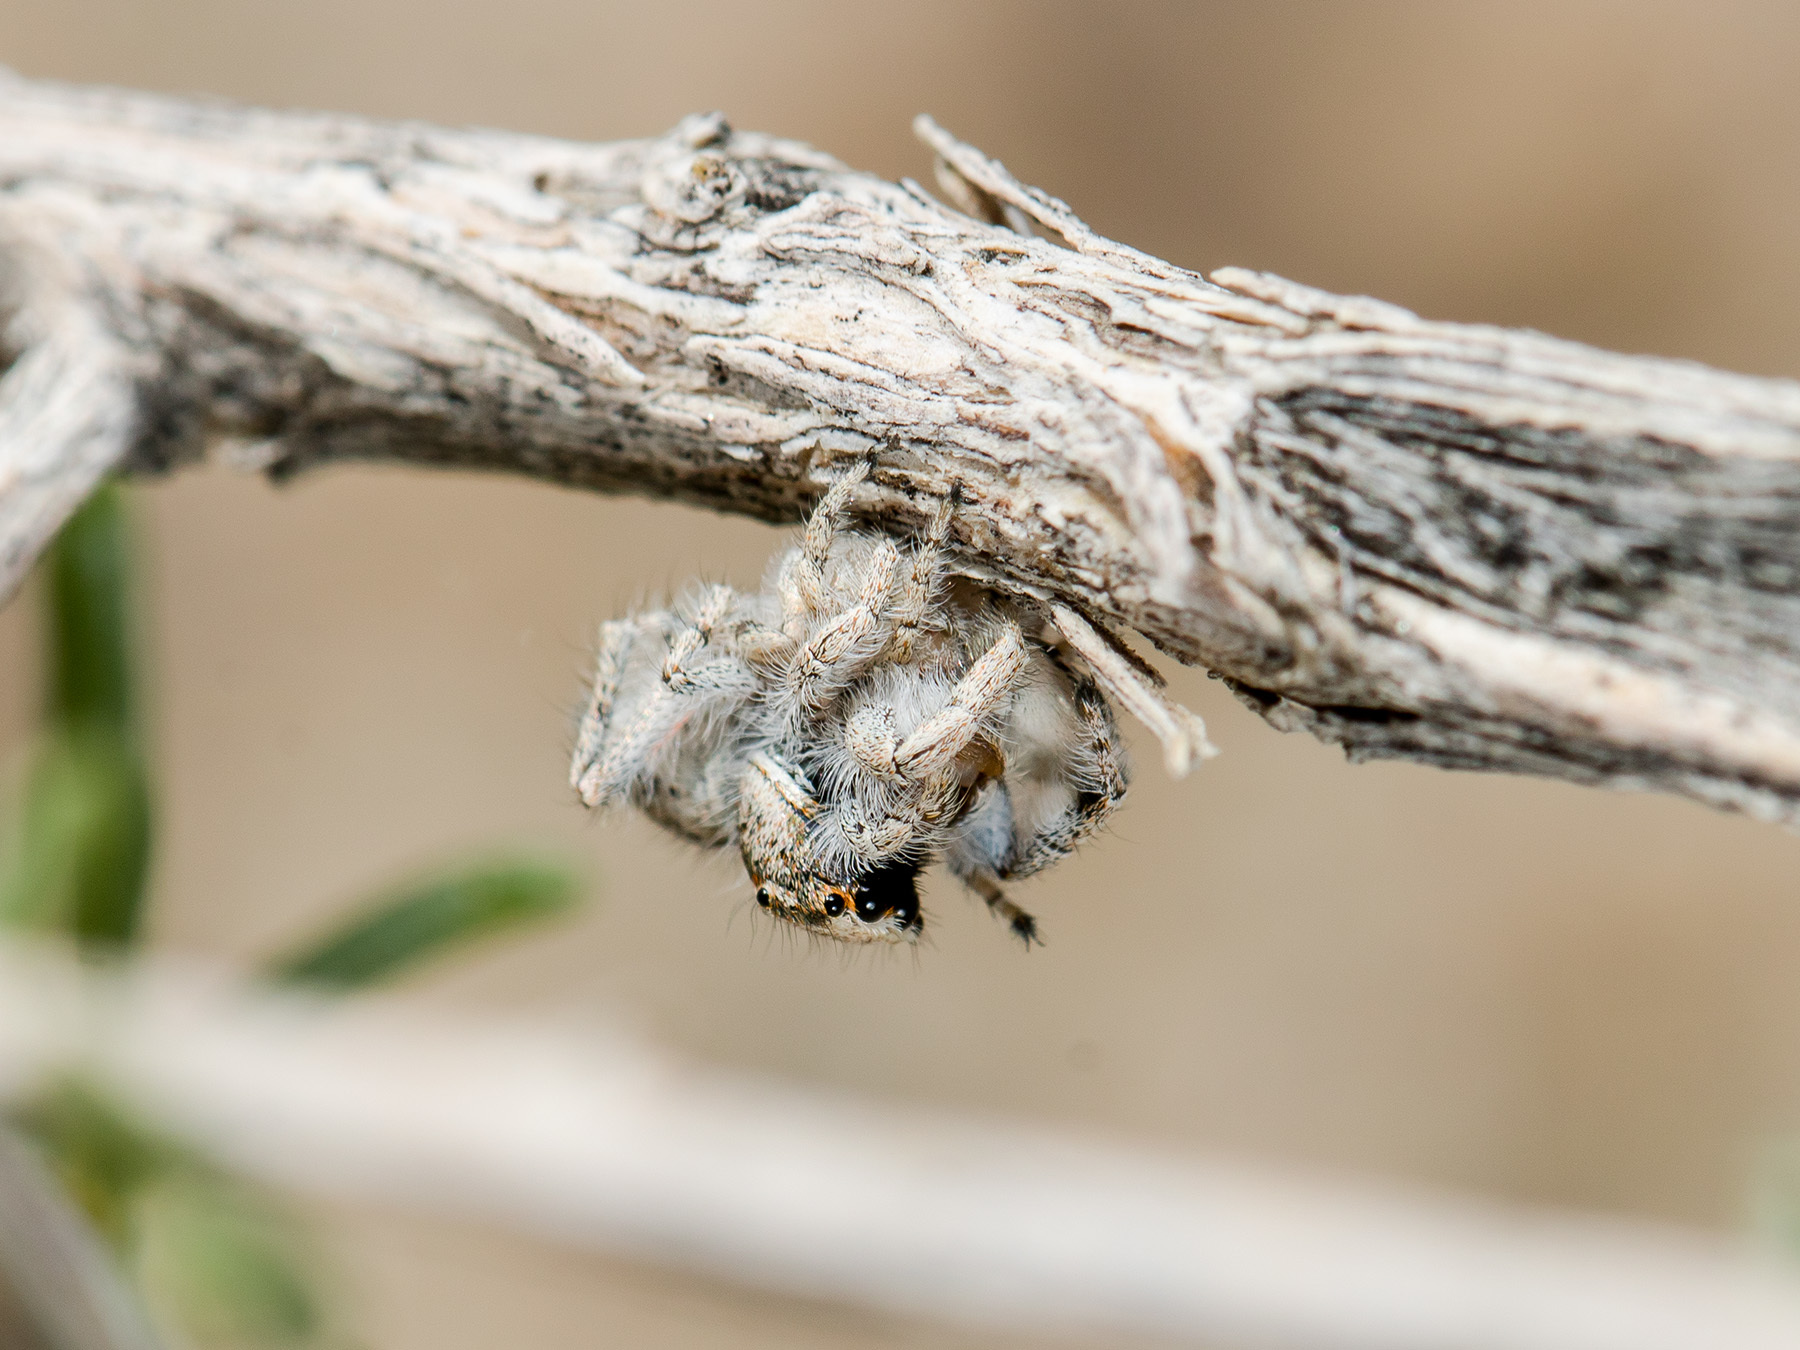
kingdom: Animalia
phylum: Arthropoda
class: Arachnida
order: Araneae
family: Salticidae
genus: Marusyllus
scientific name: Marusyllus aralicus
